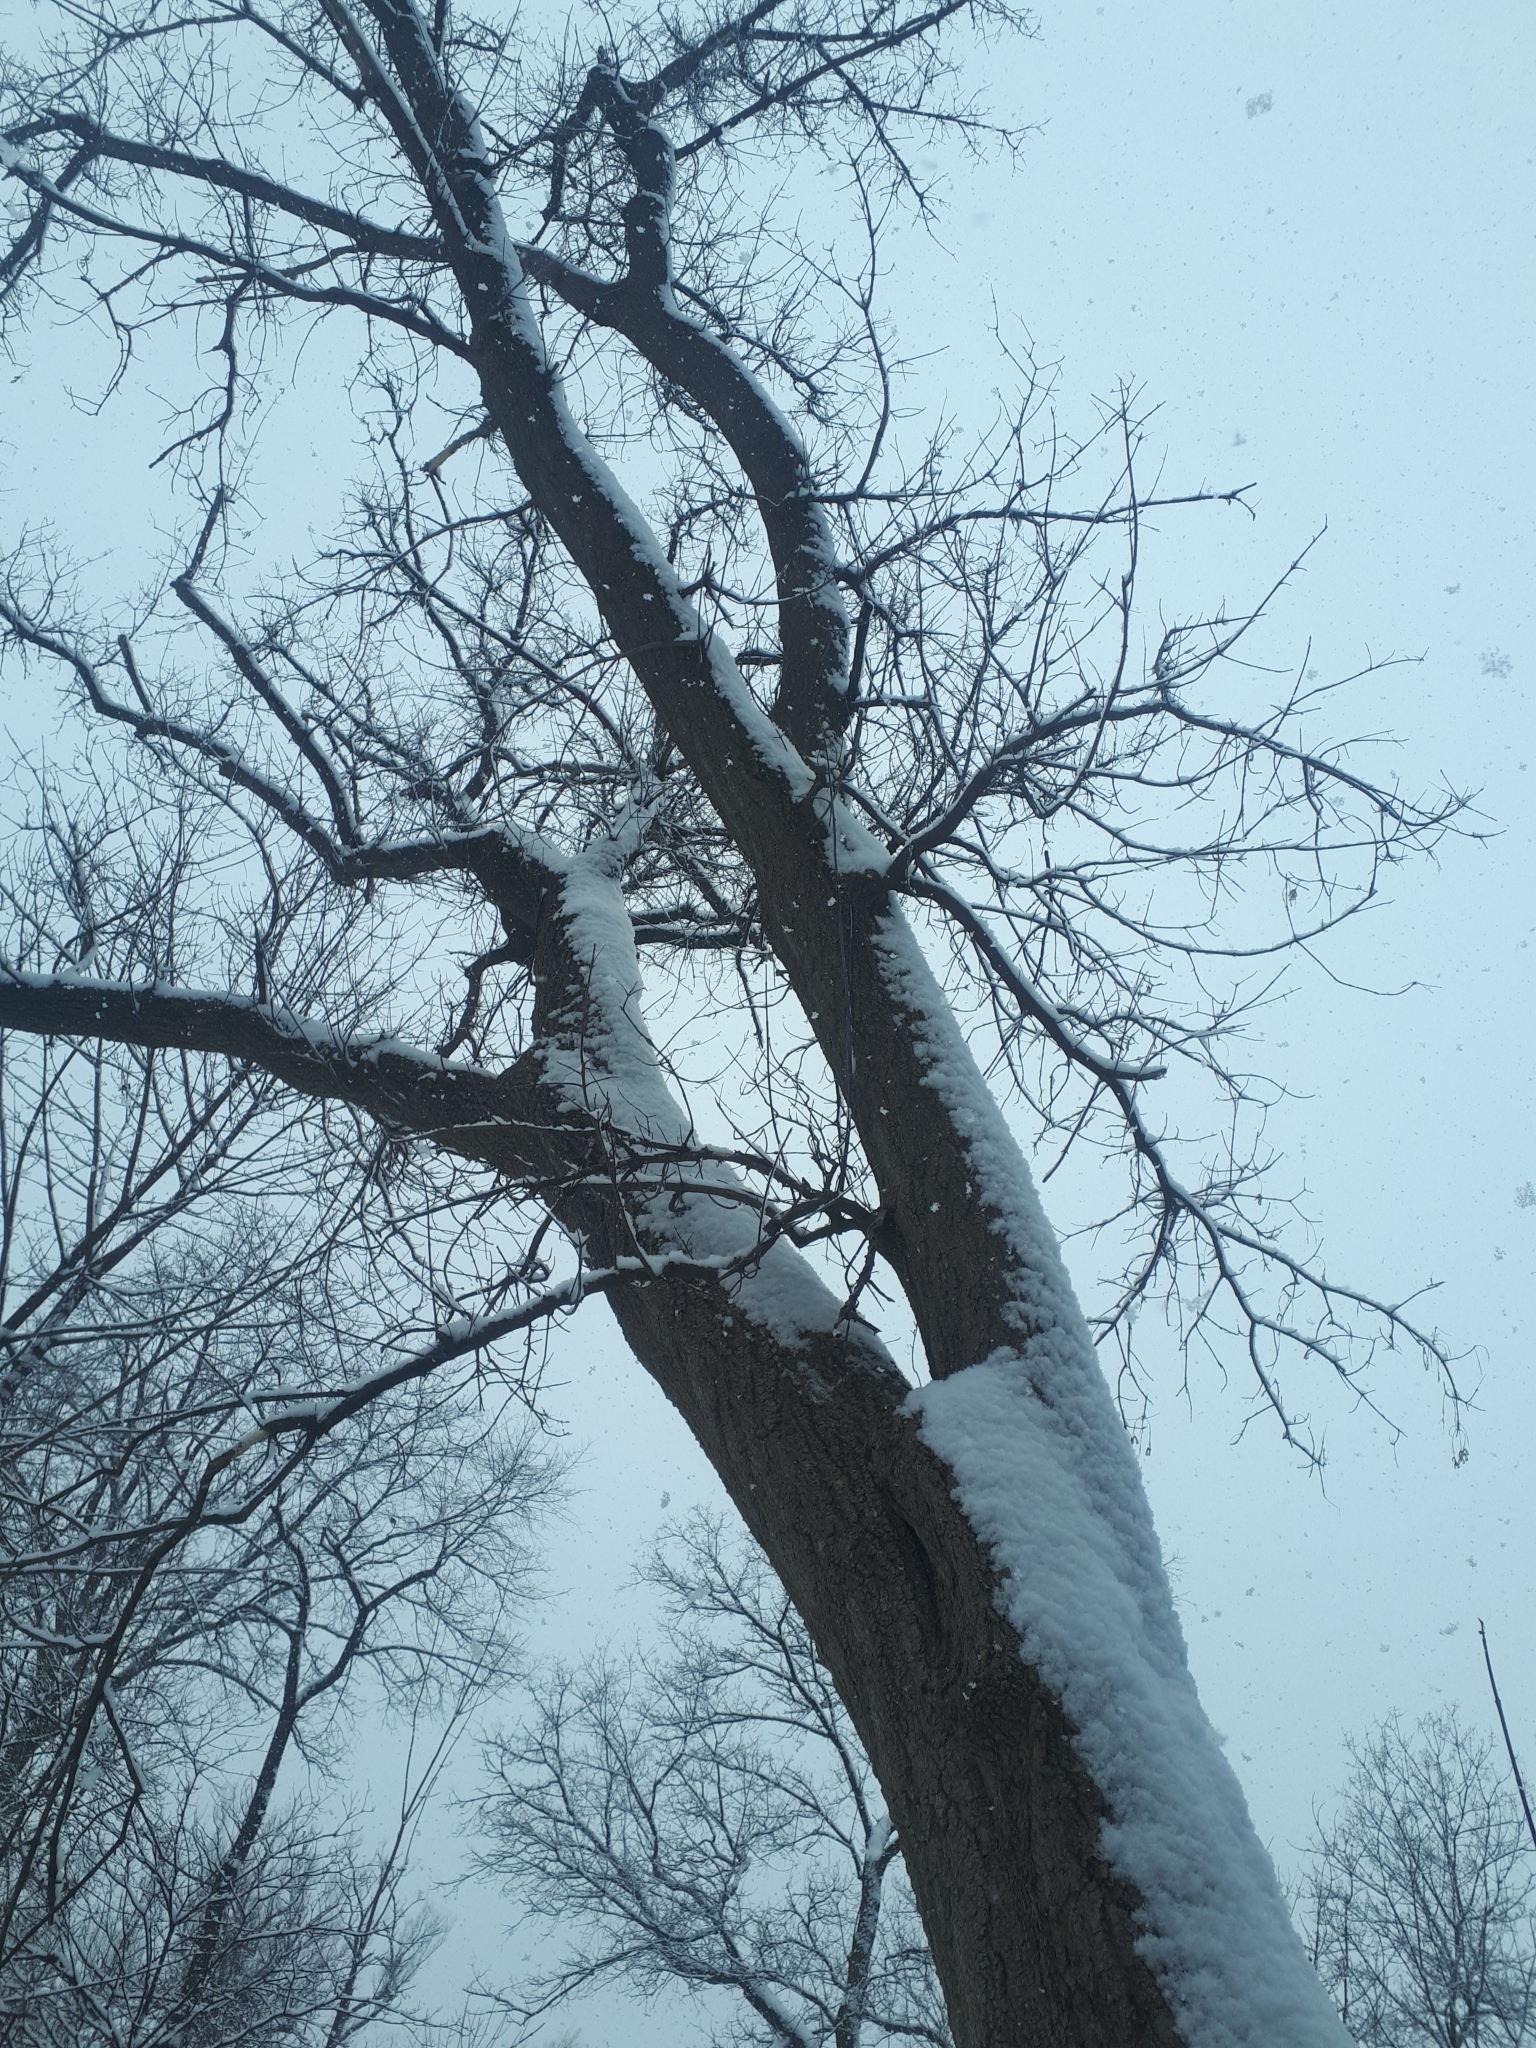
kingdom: Plantae
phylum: Tracheophyta
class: Magnoliopsida
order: Sapindales
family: Sapindaceae
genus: Acer
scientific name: Acer negundo
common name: Ashleaf maple
